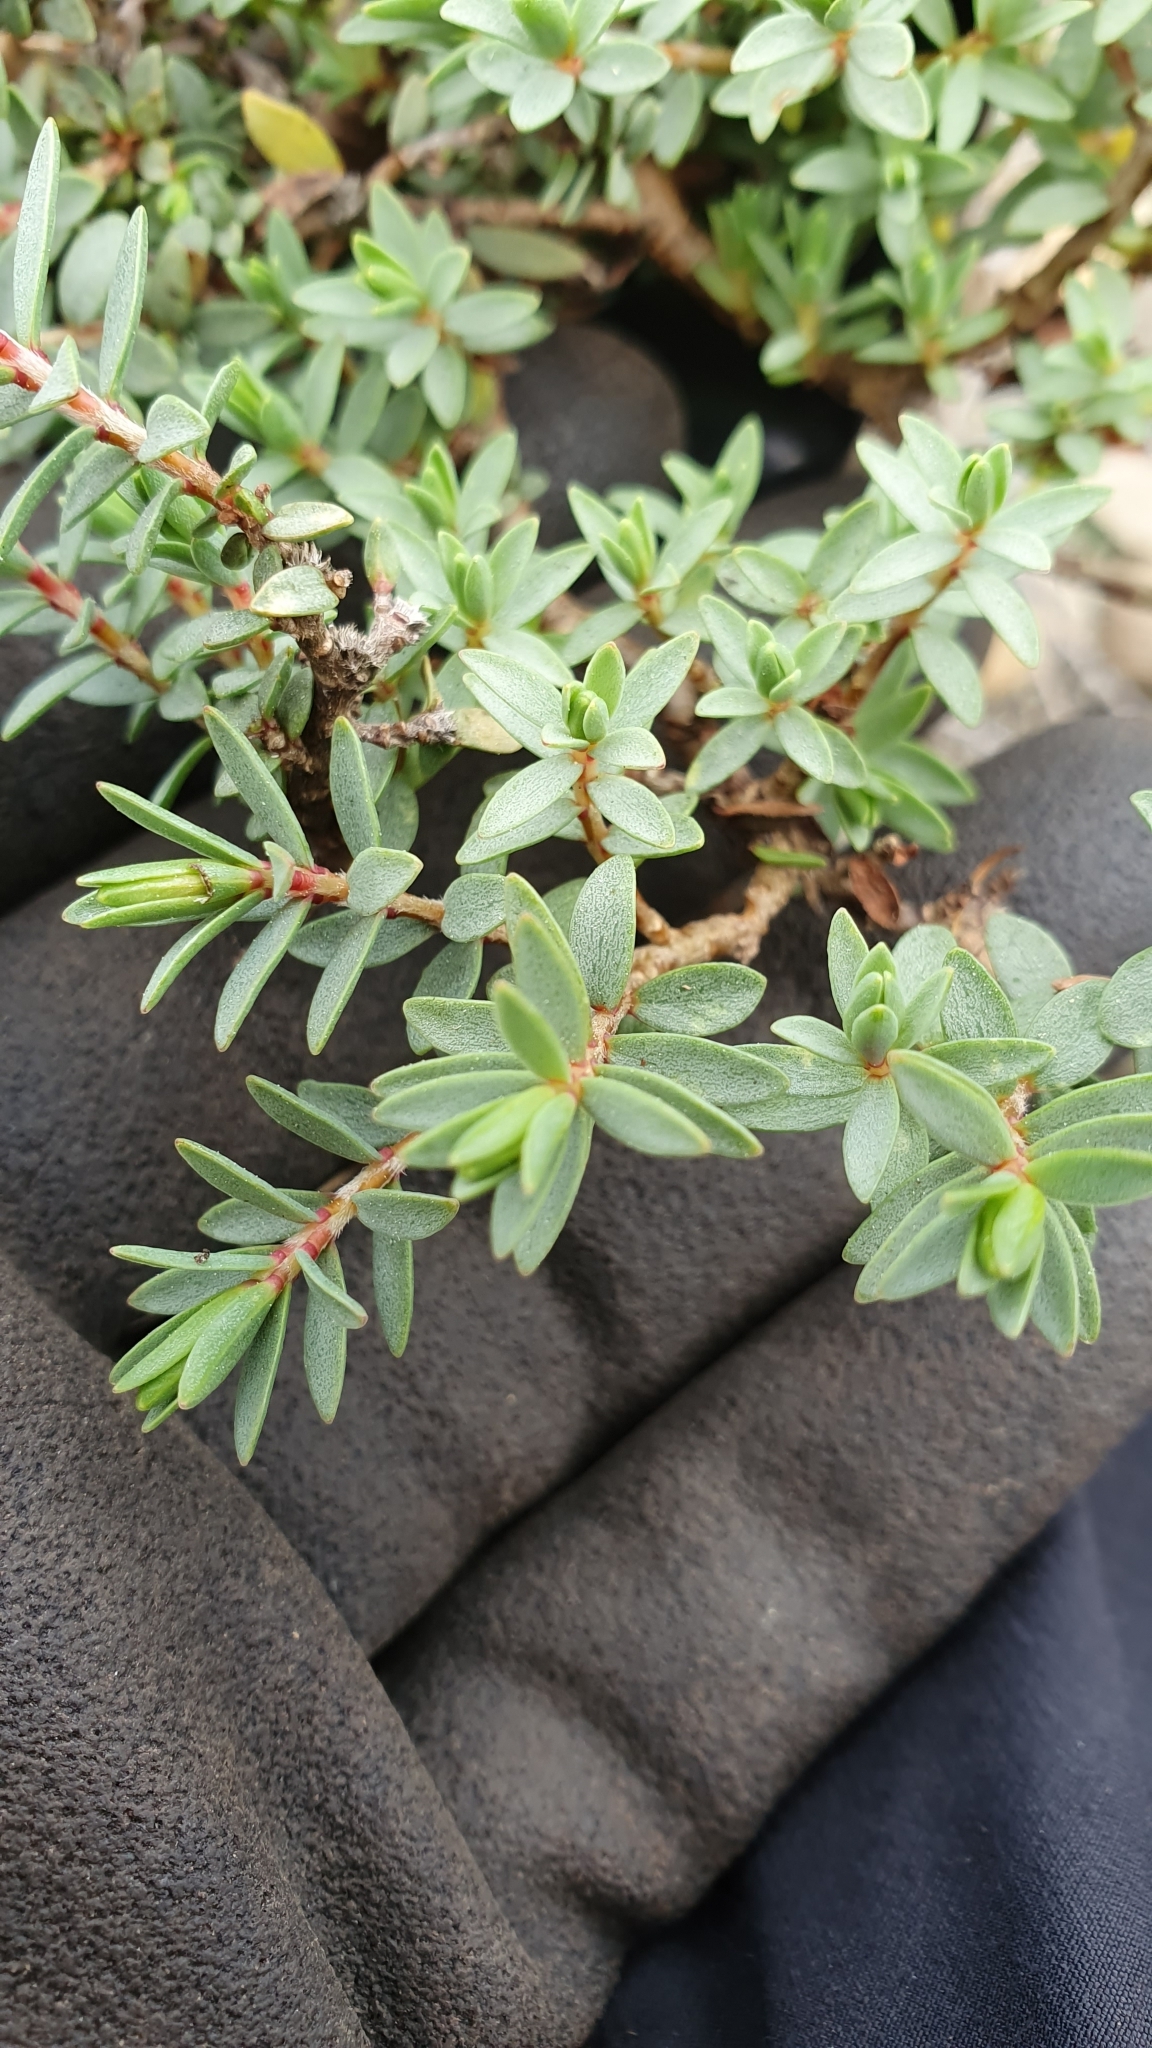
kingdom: Plantae
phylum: Tracheophyta
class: Magnoliopsida
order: Malvales
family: Thymelaeaceae
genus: Pimelea
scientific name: Pimelea villosa
